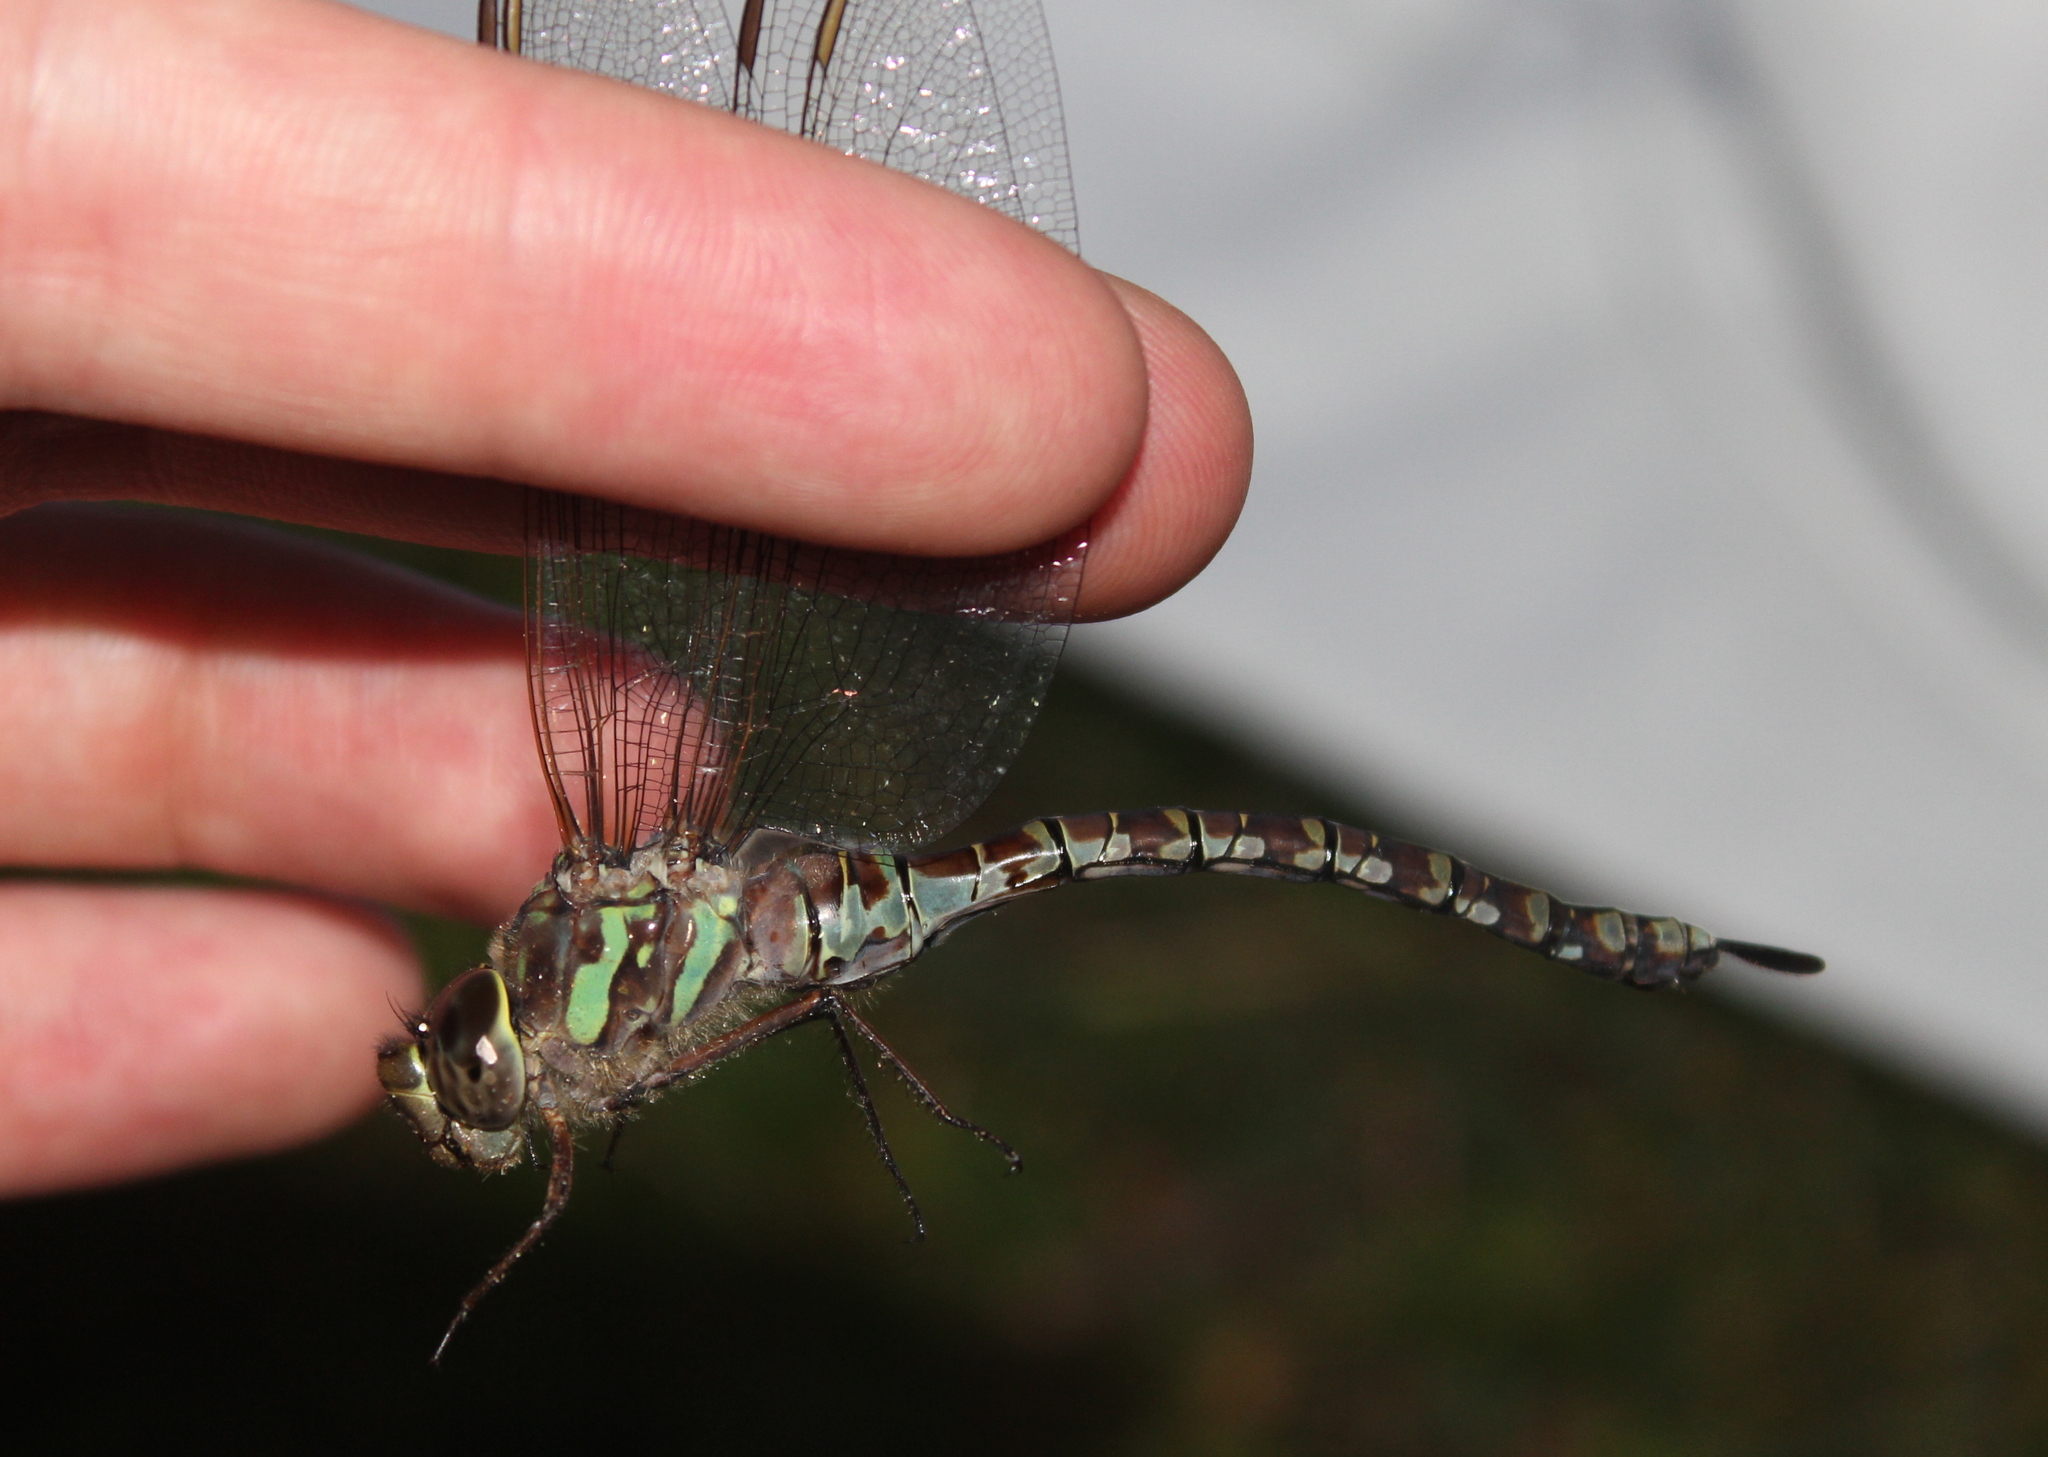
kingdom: Animalia
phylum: Arthropoda
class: Insecta
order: Odonata
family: Aeshnidae
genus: Aeshna
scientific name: Aeshna canadensis
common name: Canada darner
